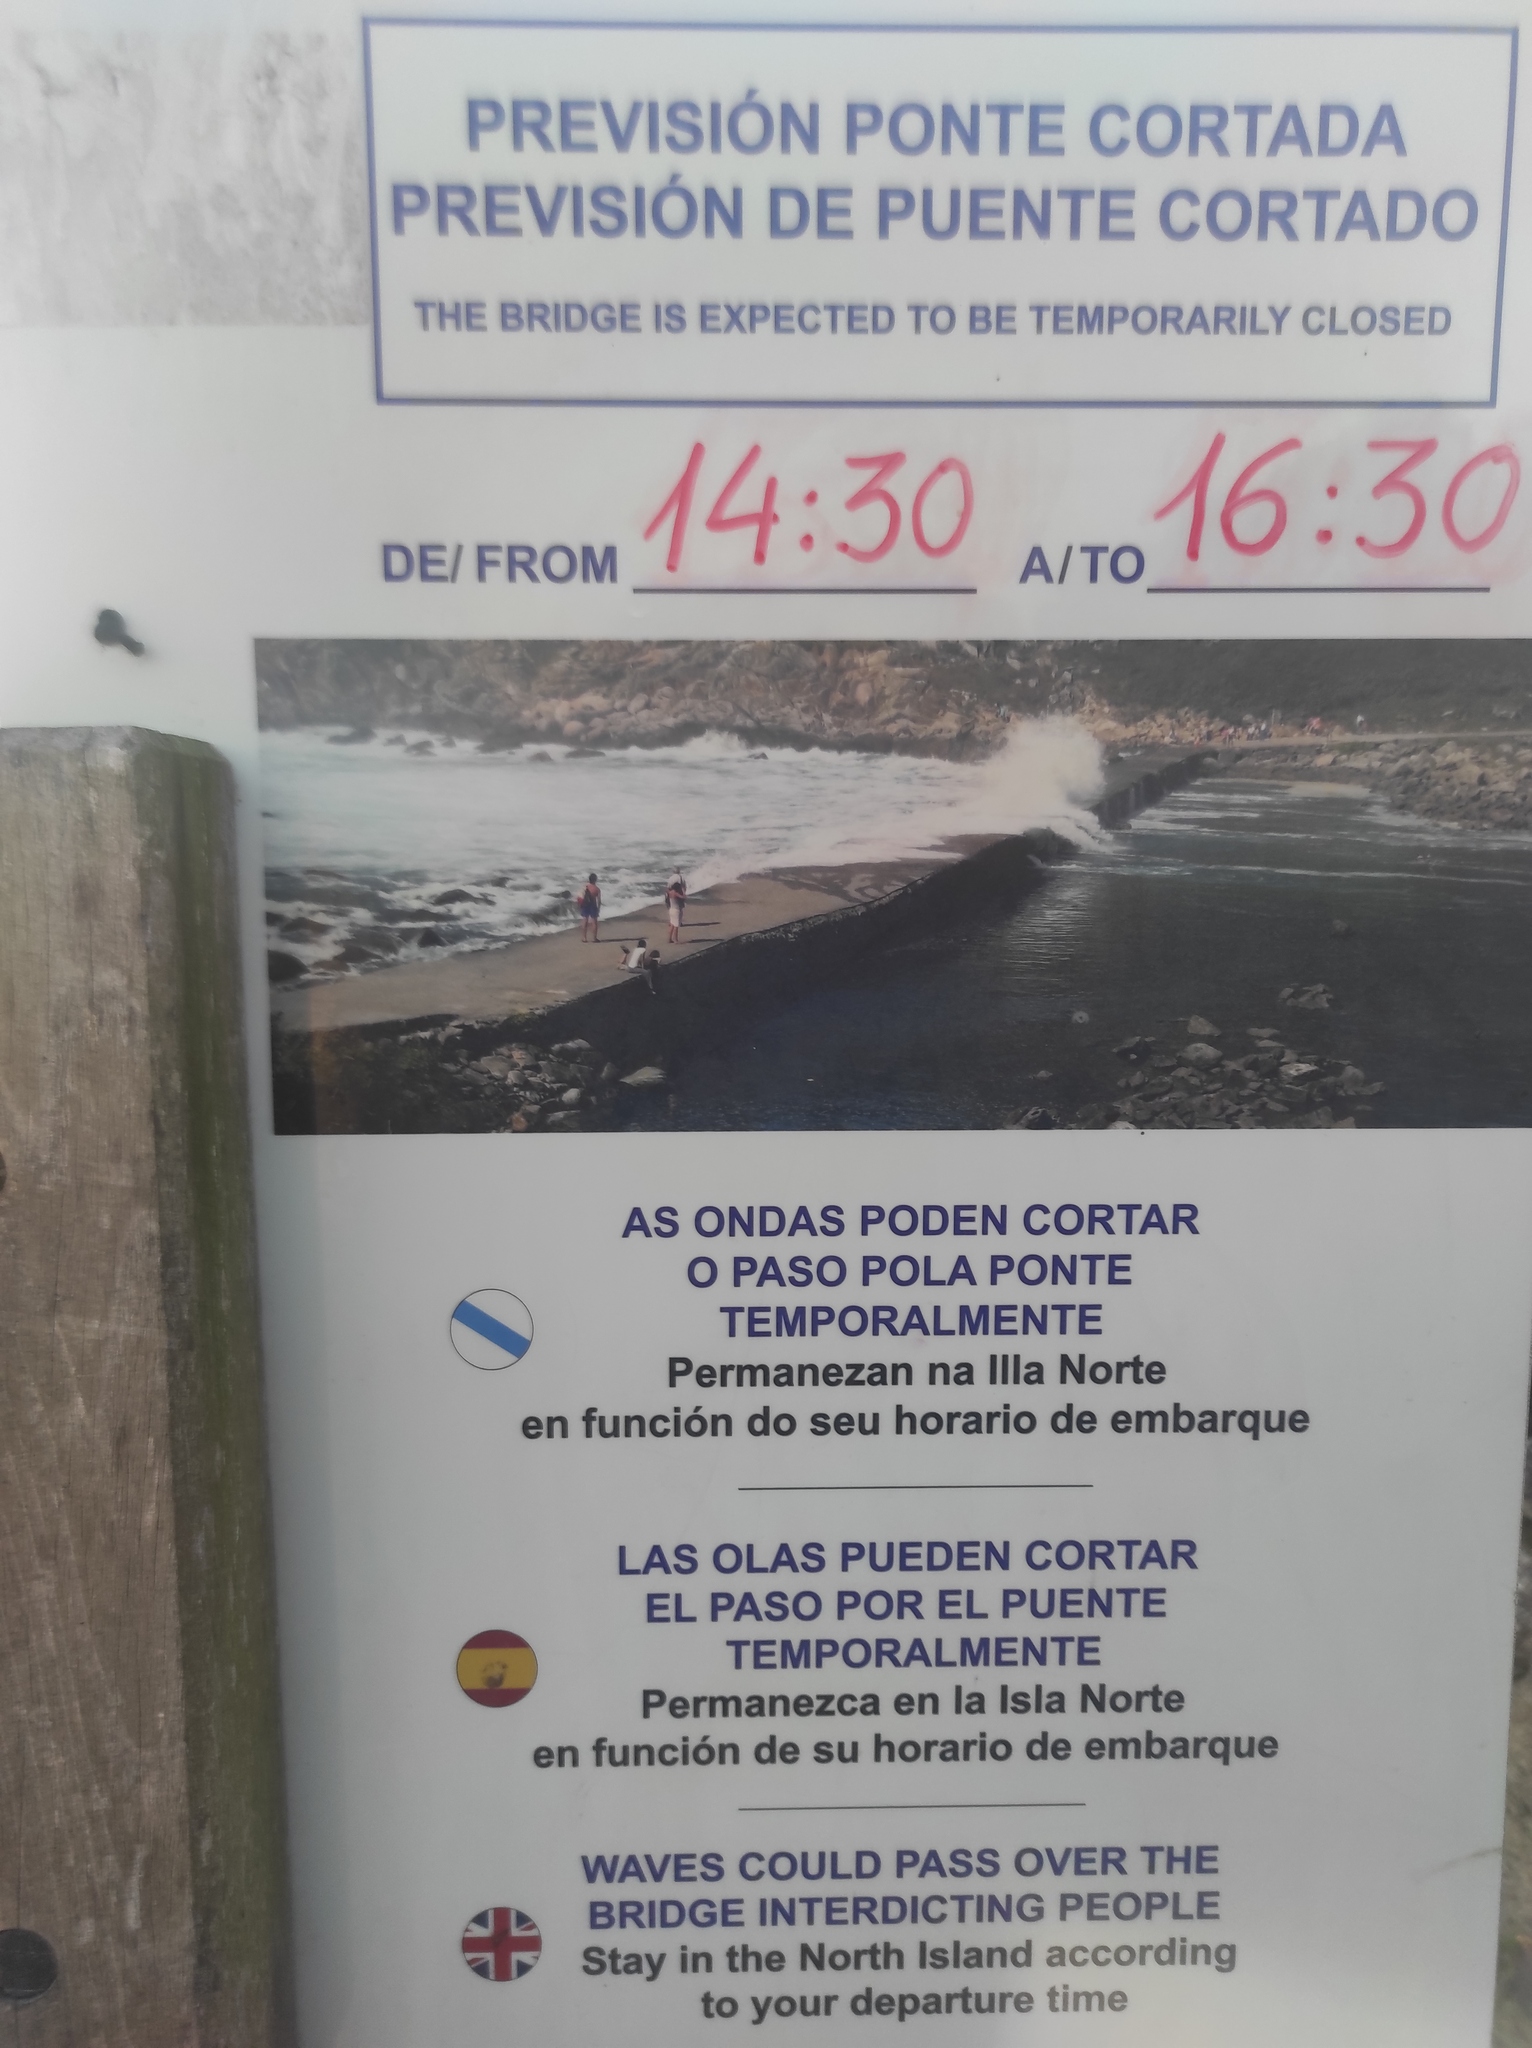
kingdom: Animalia
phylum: Chordata
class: Aves
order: Passeriformes
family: Fringillidae
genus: Fringilla
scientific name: Fringilla coelebs
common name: Common chaffinch
